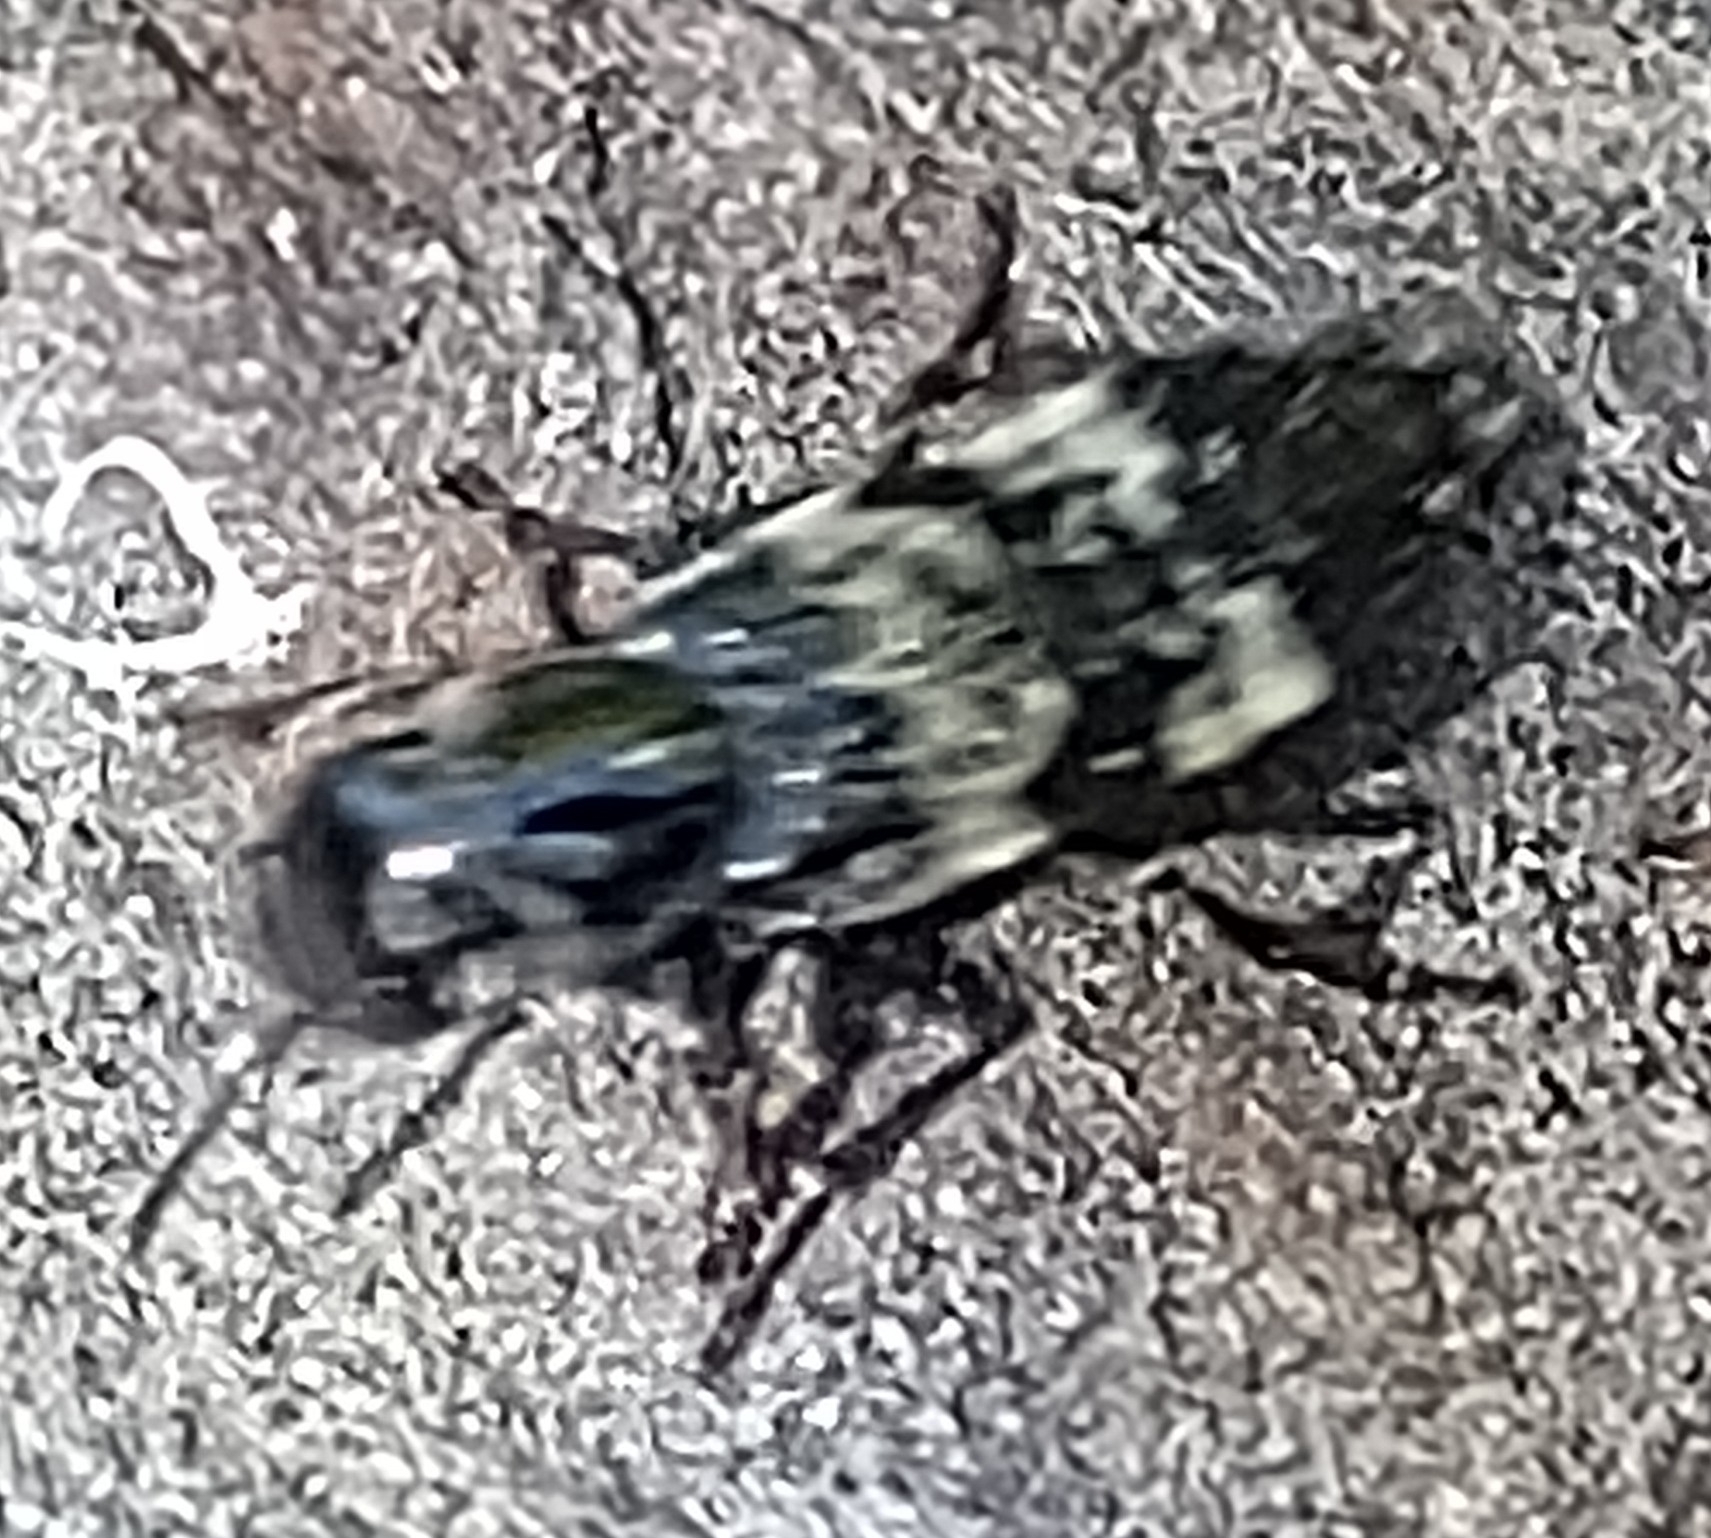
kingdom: Animalia
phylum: Arthropoda
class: Insecta
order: Coleoptera
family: Staphylinidae
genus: Creophilus
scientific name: Creophilus maxillosus
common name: Hairy rove beetle
